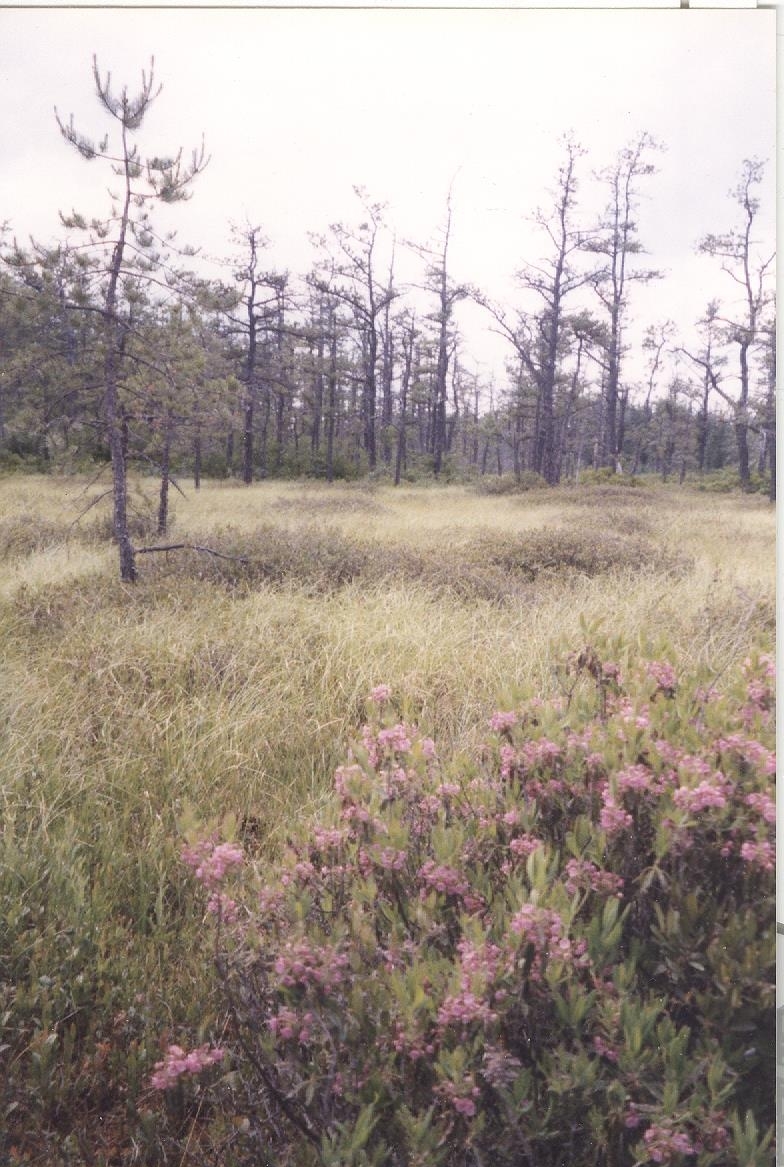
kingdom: Plantae
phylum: Tracheophyta
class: Magnoliopsida
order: Ericales
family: Ericaceae
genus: Kalmia
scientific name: Kalmia angustifolia
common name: Sheep-laurel
